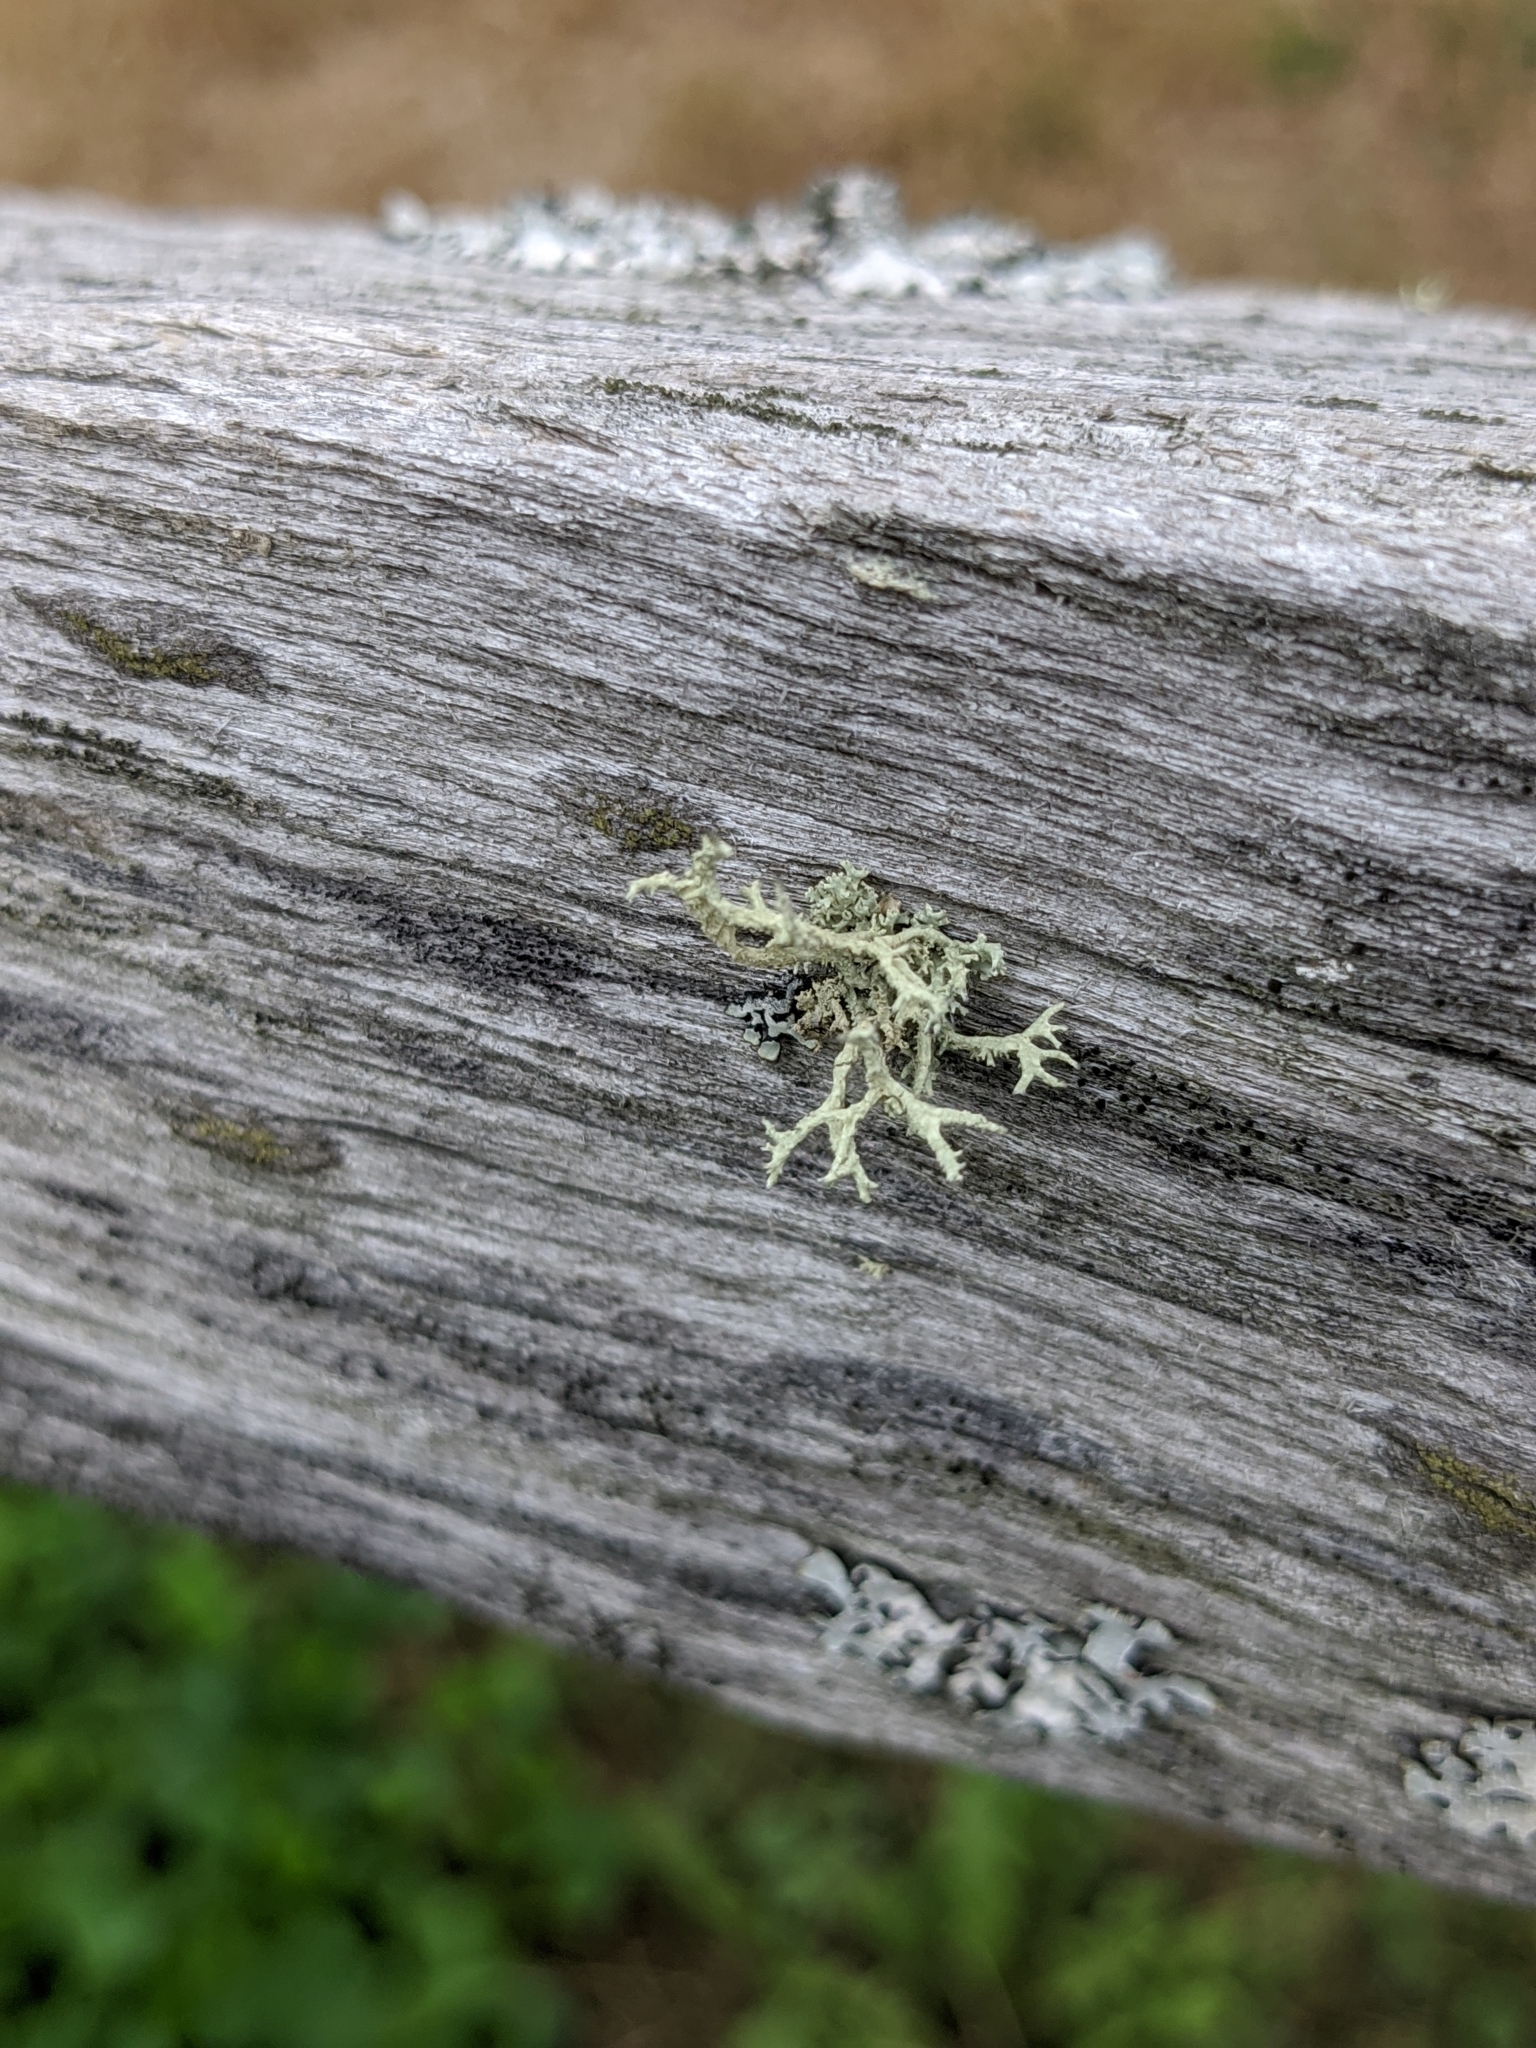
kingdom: Fungi
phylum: Ascomycota
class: Lecanoromycetes
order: Lecanorales
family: Parmeliaceae
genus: Evernia
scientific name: Evernia mesomorpha
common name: Boreal oak moss lichen
